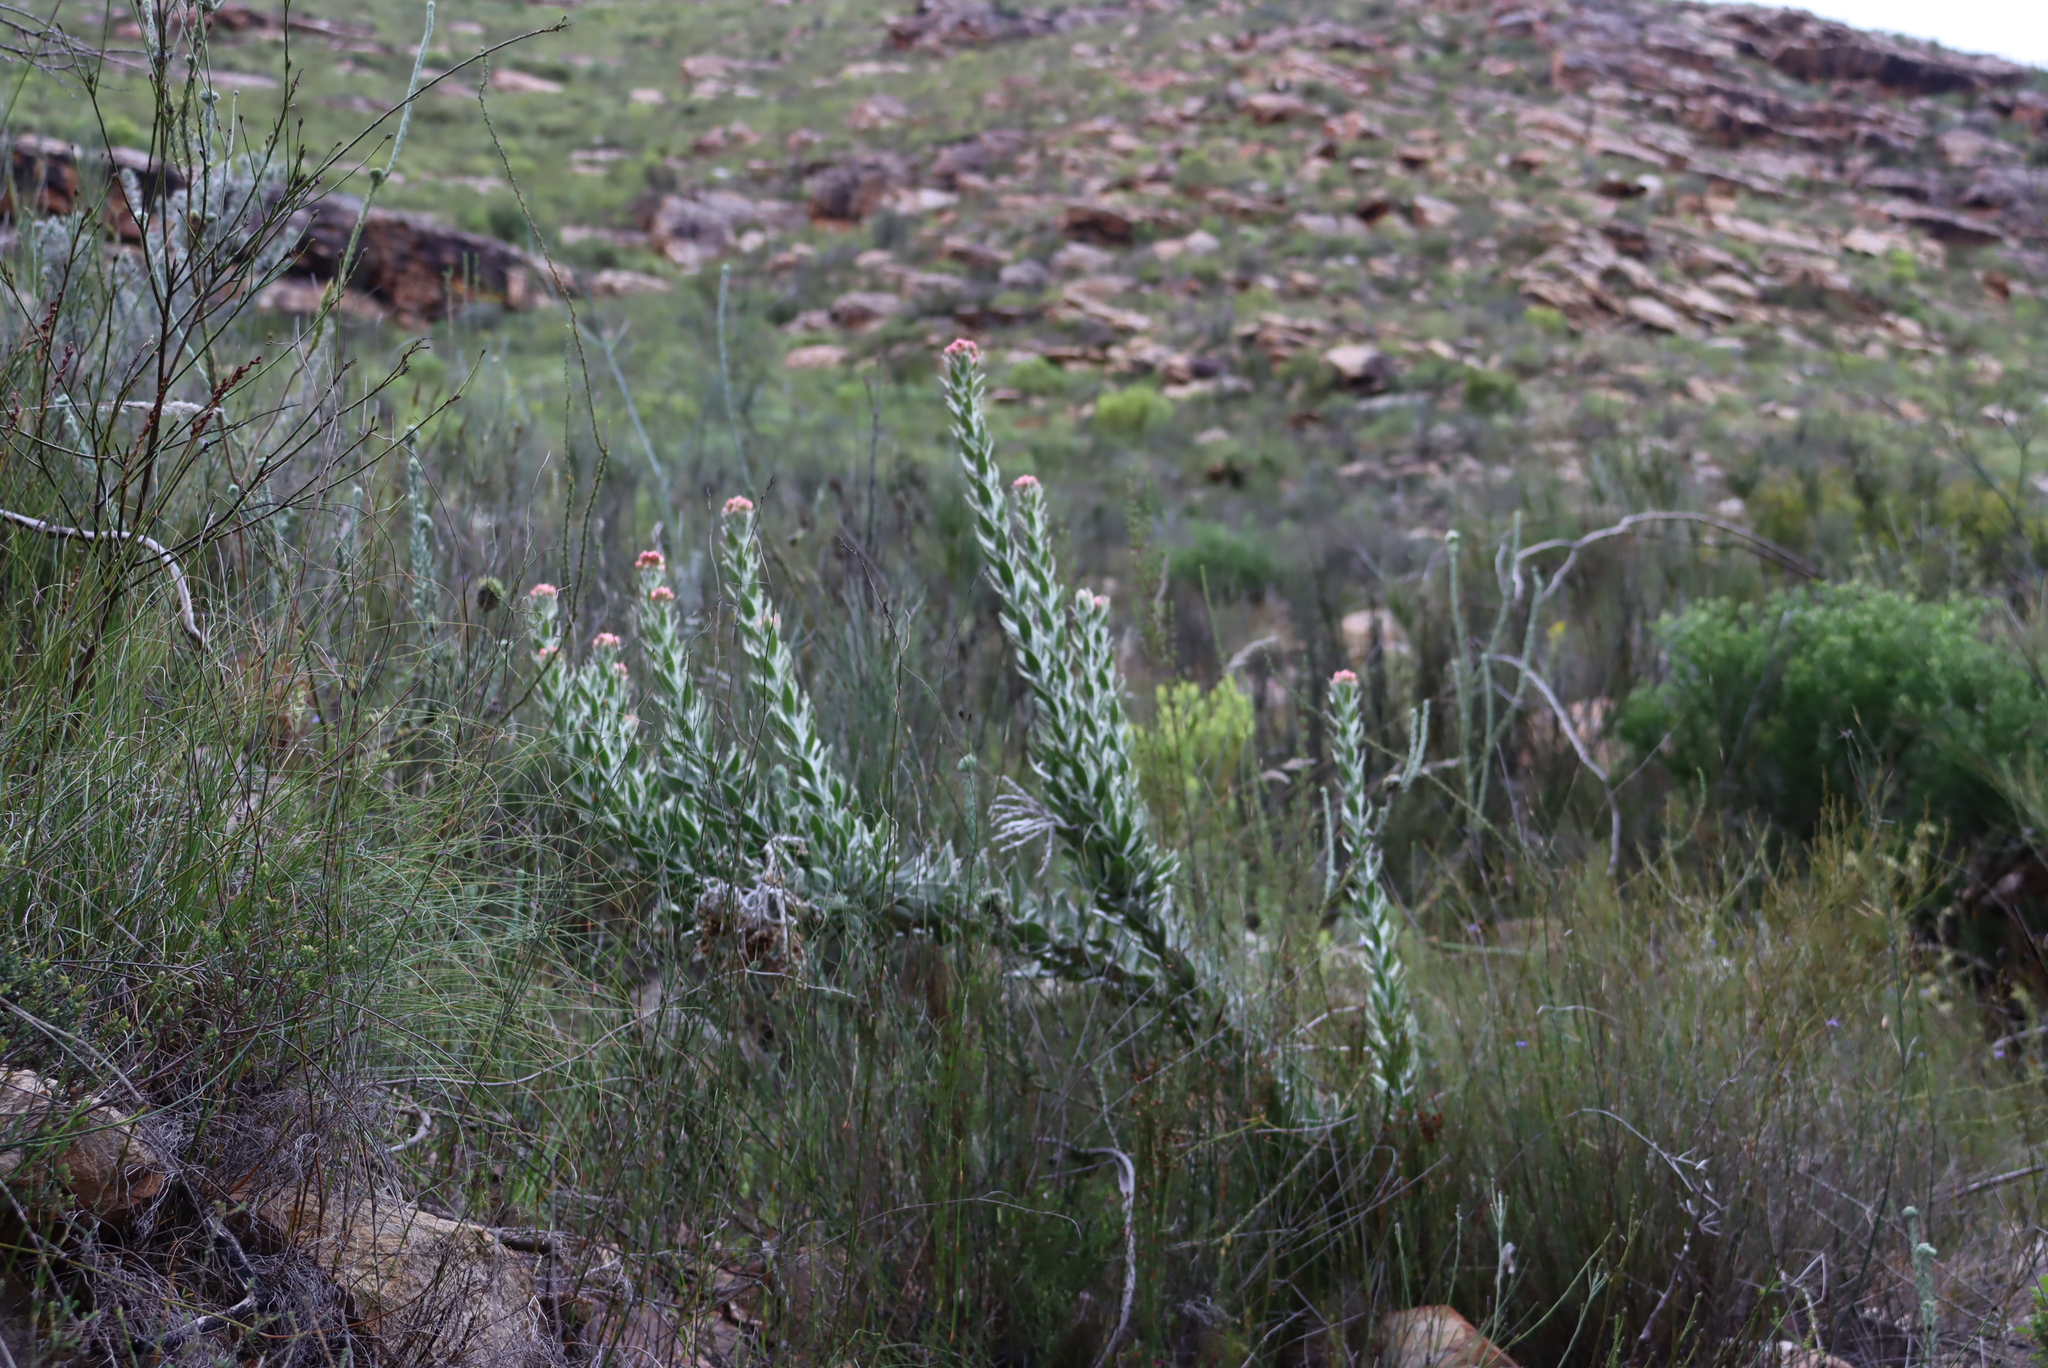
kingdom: Plantae
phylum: Tracheophyta
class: Magnoliopsida
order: Asterales
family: Asteraceae
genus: Syncarpha
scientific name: Syncarpha milleflora
